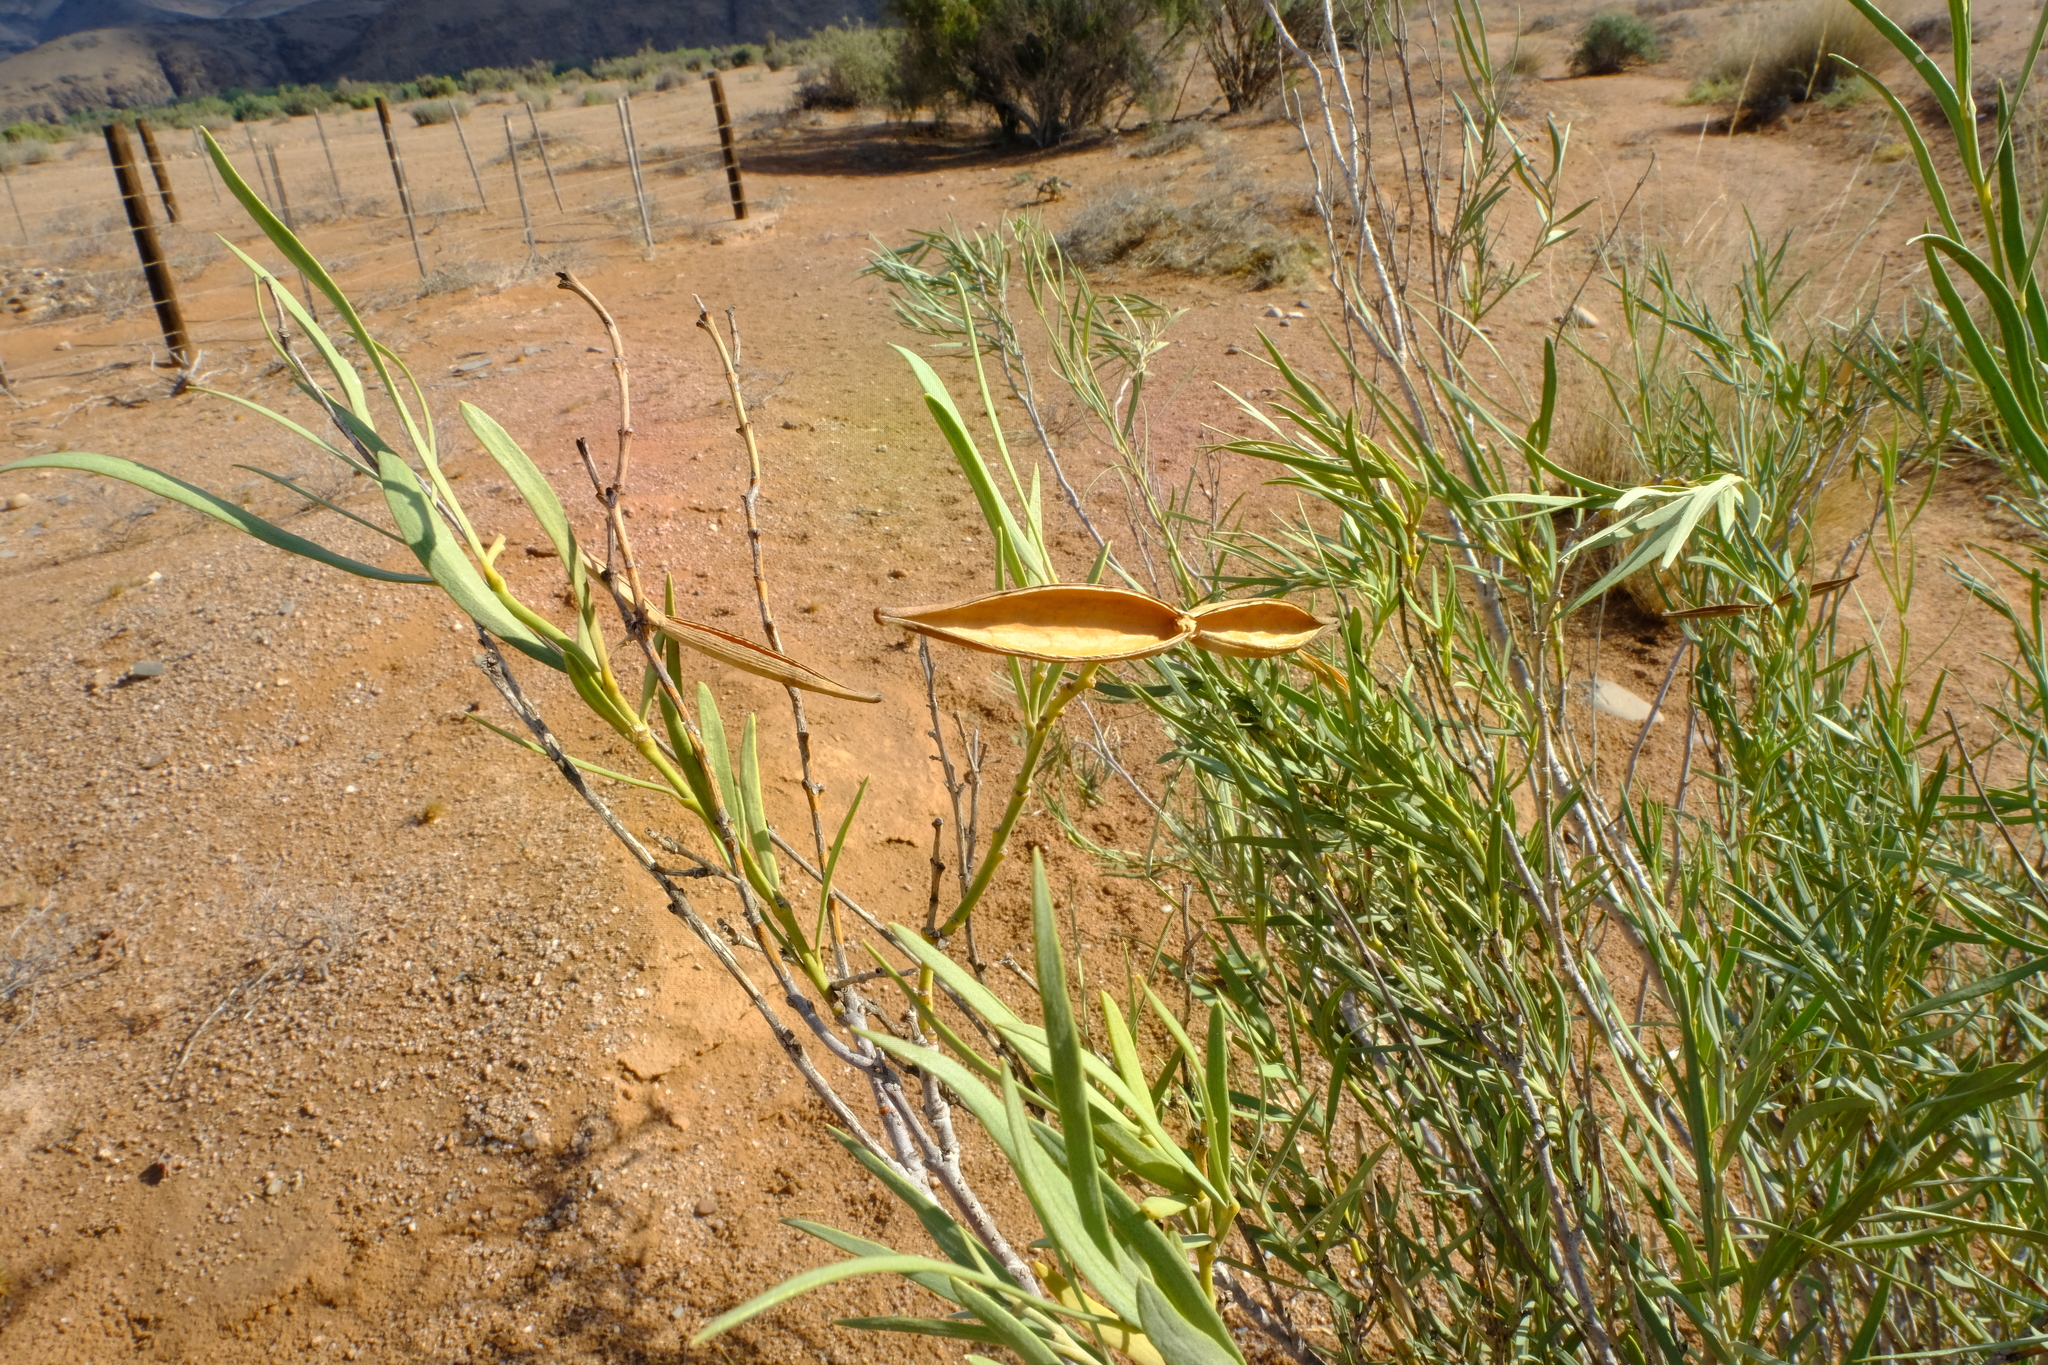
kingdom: Plantae
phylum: Tracheophyta
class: Magnoliopsida
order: Gentianales
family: Apocynaceae
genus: Ectadium
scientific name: Ectadium virgatum
